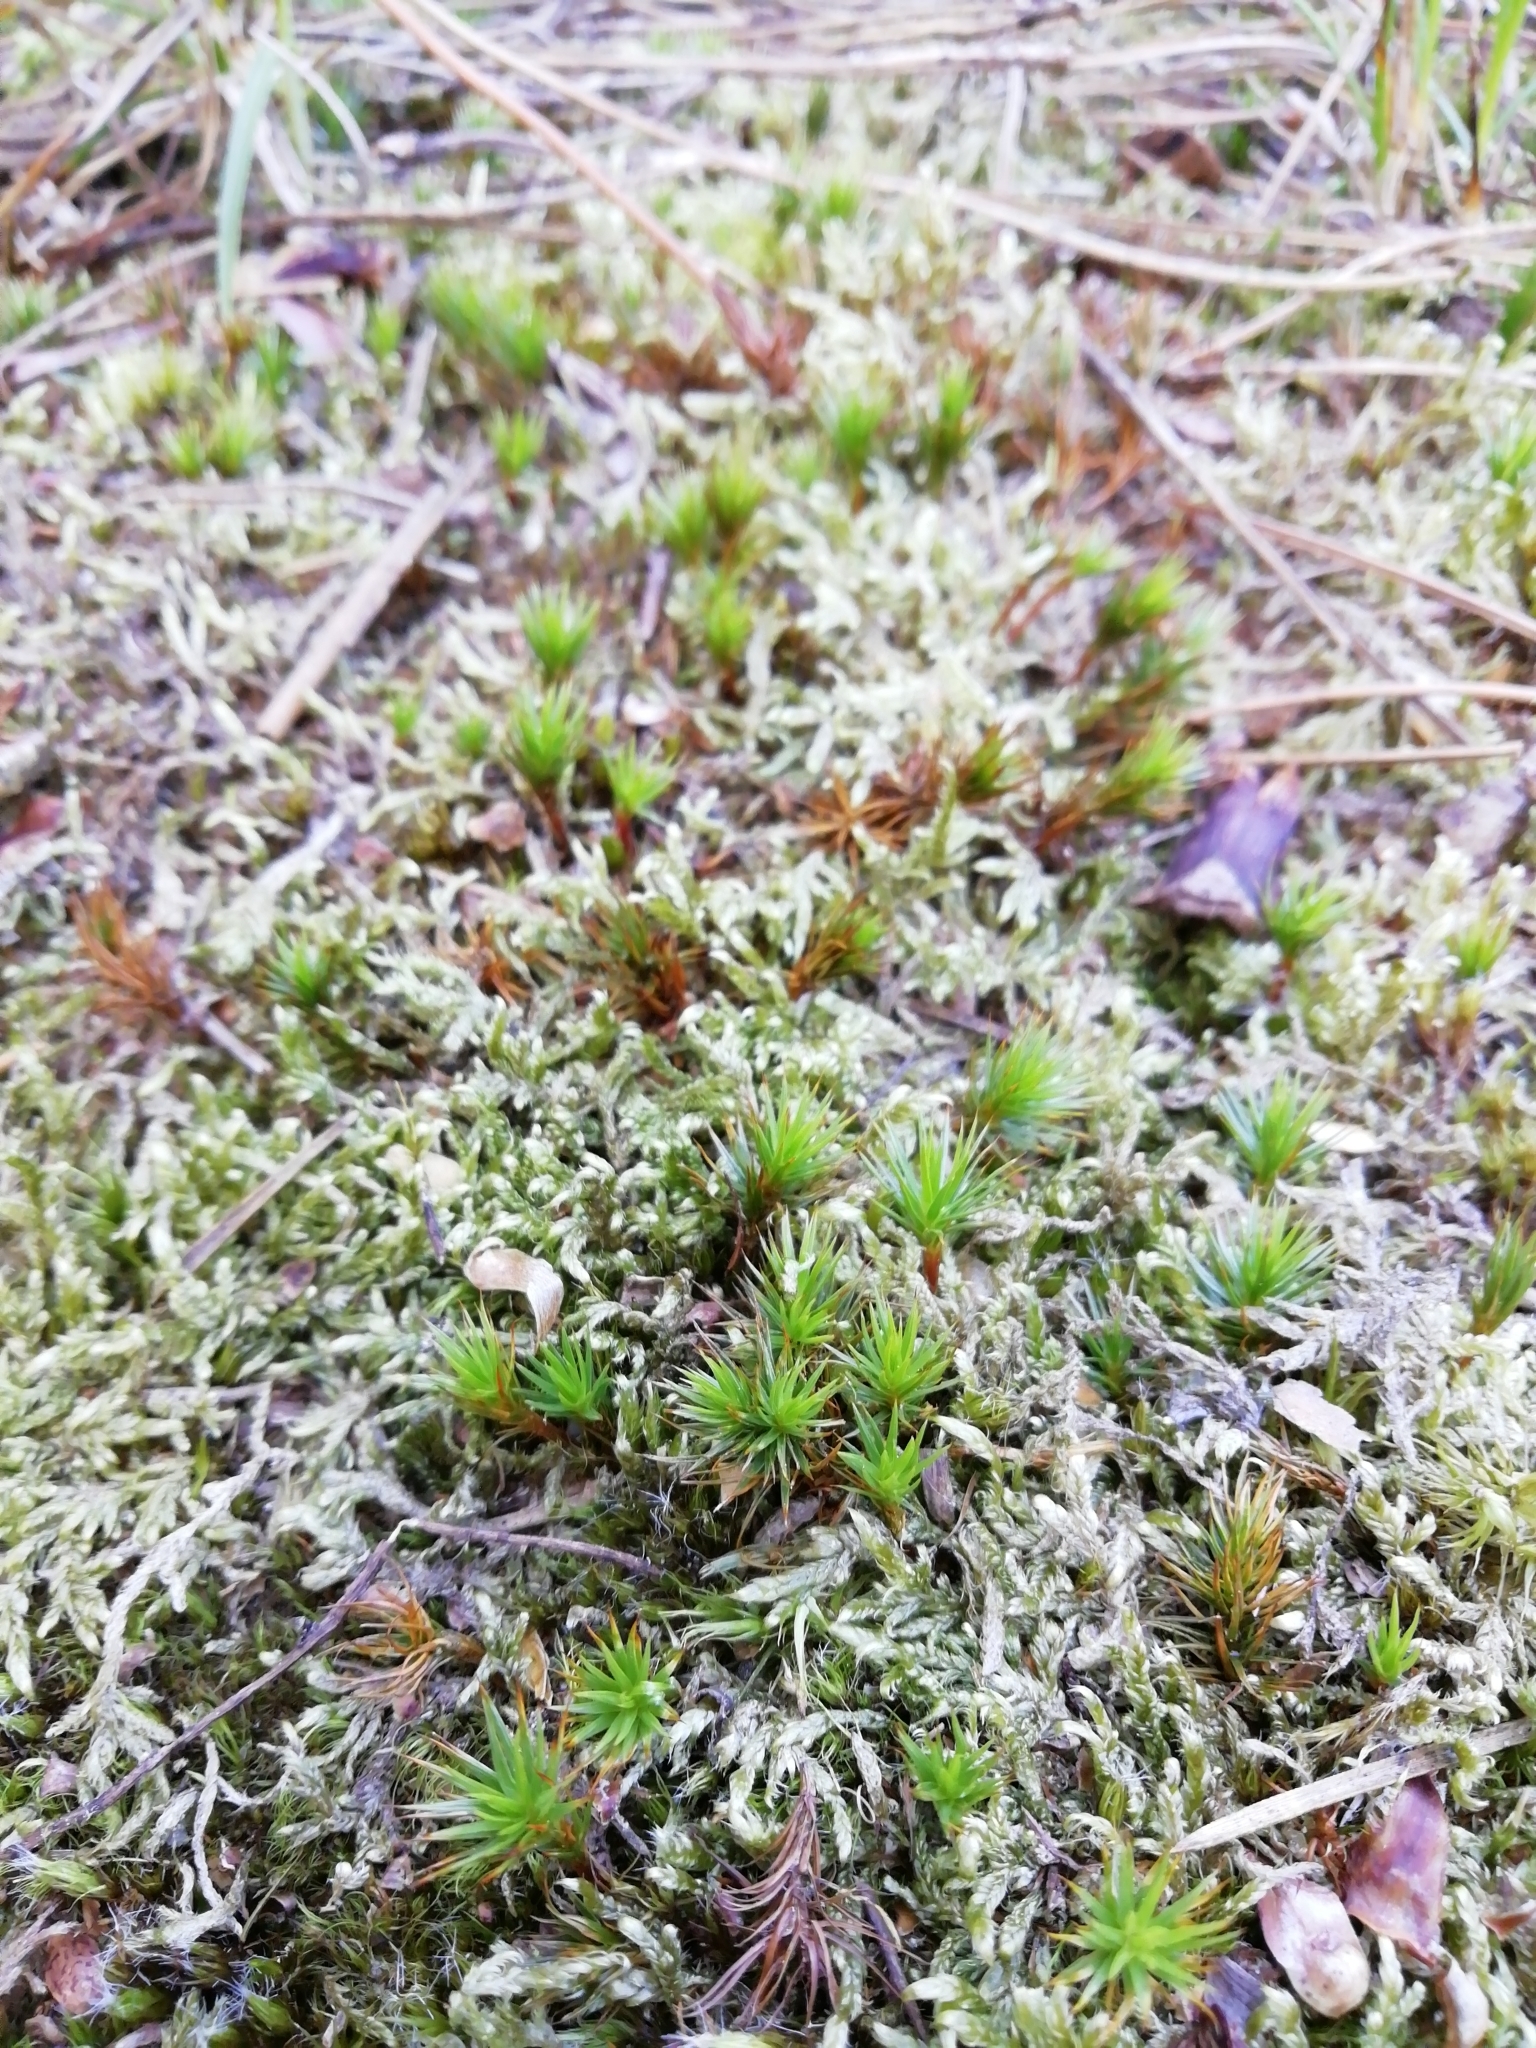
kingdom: Plantae
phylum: Bryophyta
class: Polytrichopsida
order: Polytrichales
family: Polytrichaceae
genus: Polytrichum
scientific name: Polytrichum juniperinum
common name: Juniper haircap moss
